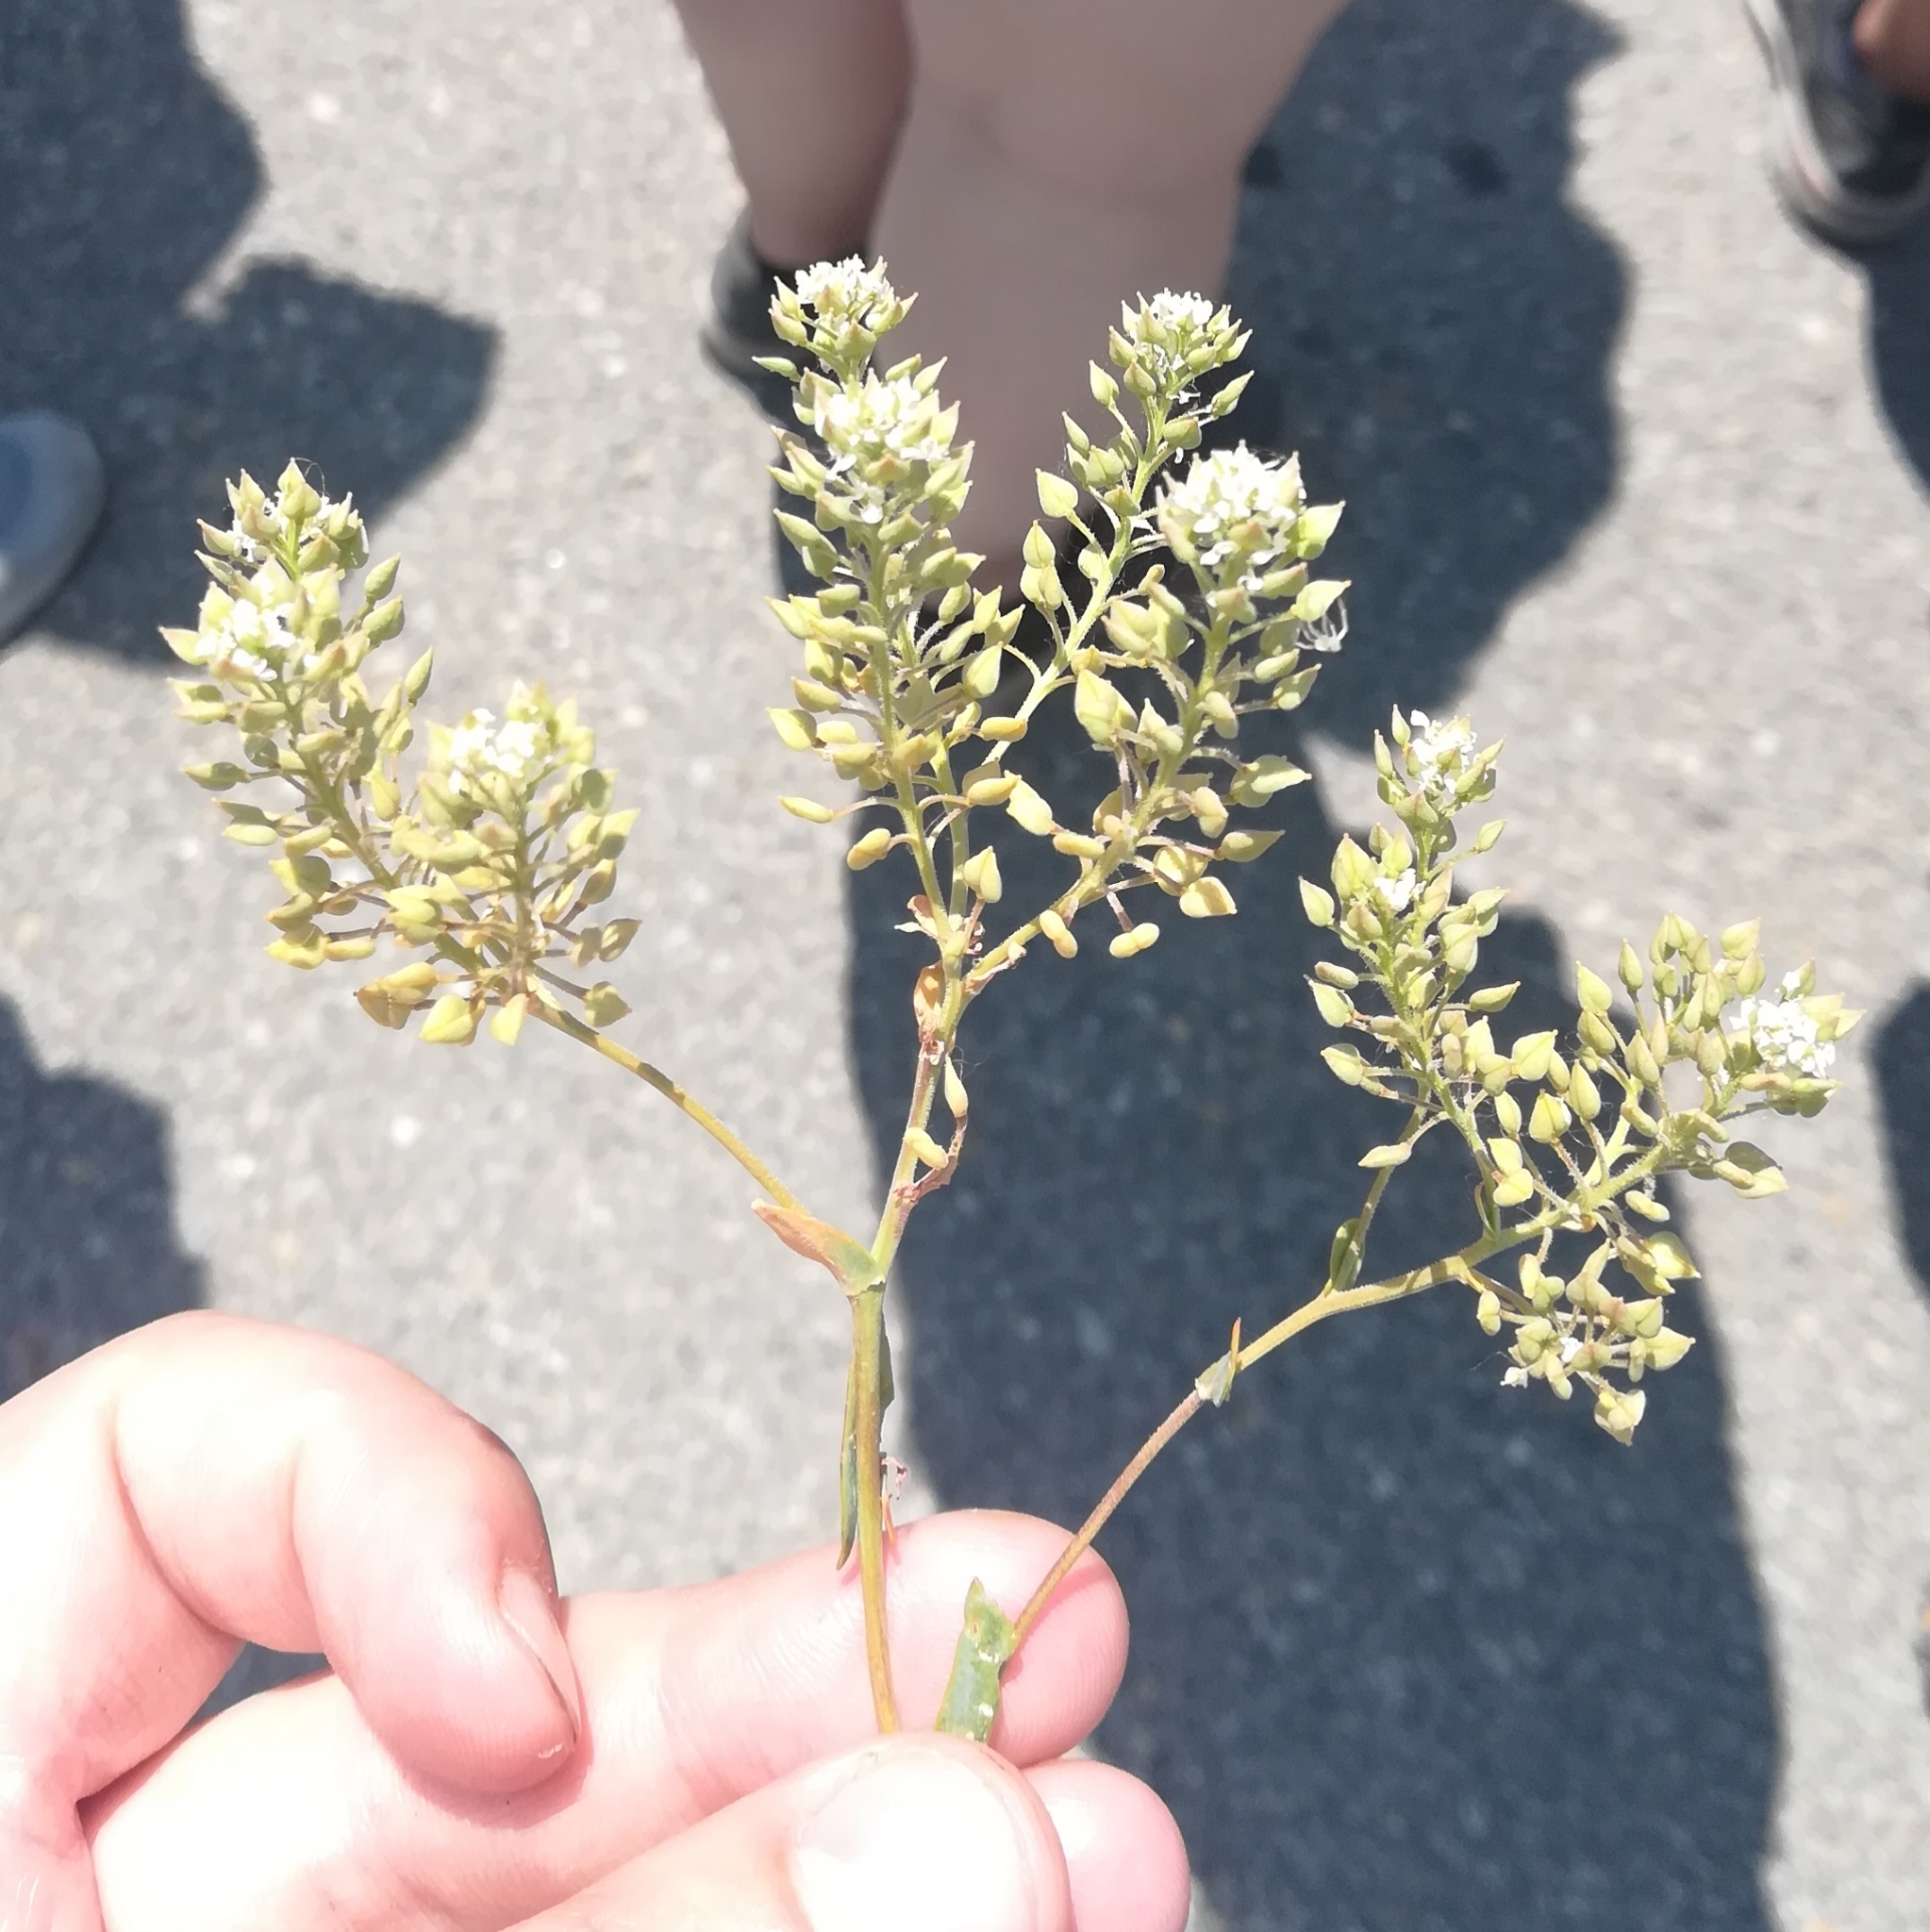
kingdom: Plantae
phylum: Tracheophyta
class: Magnoliopsida
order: Brassicales
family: Brassicaceae
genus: Lepidium
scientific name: Lepidium cartilagineum
